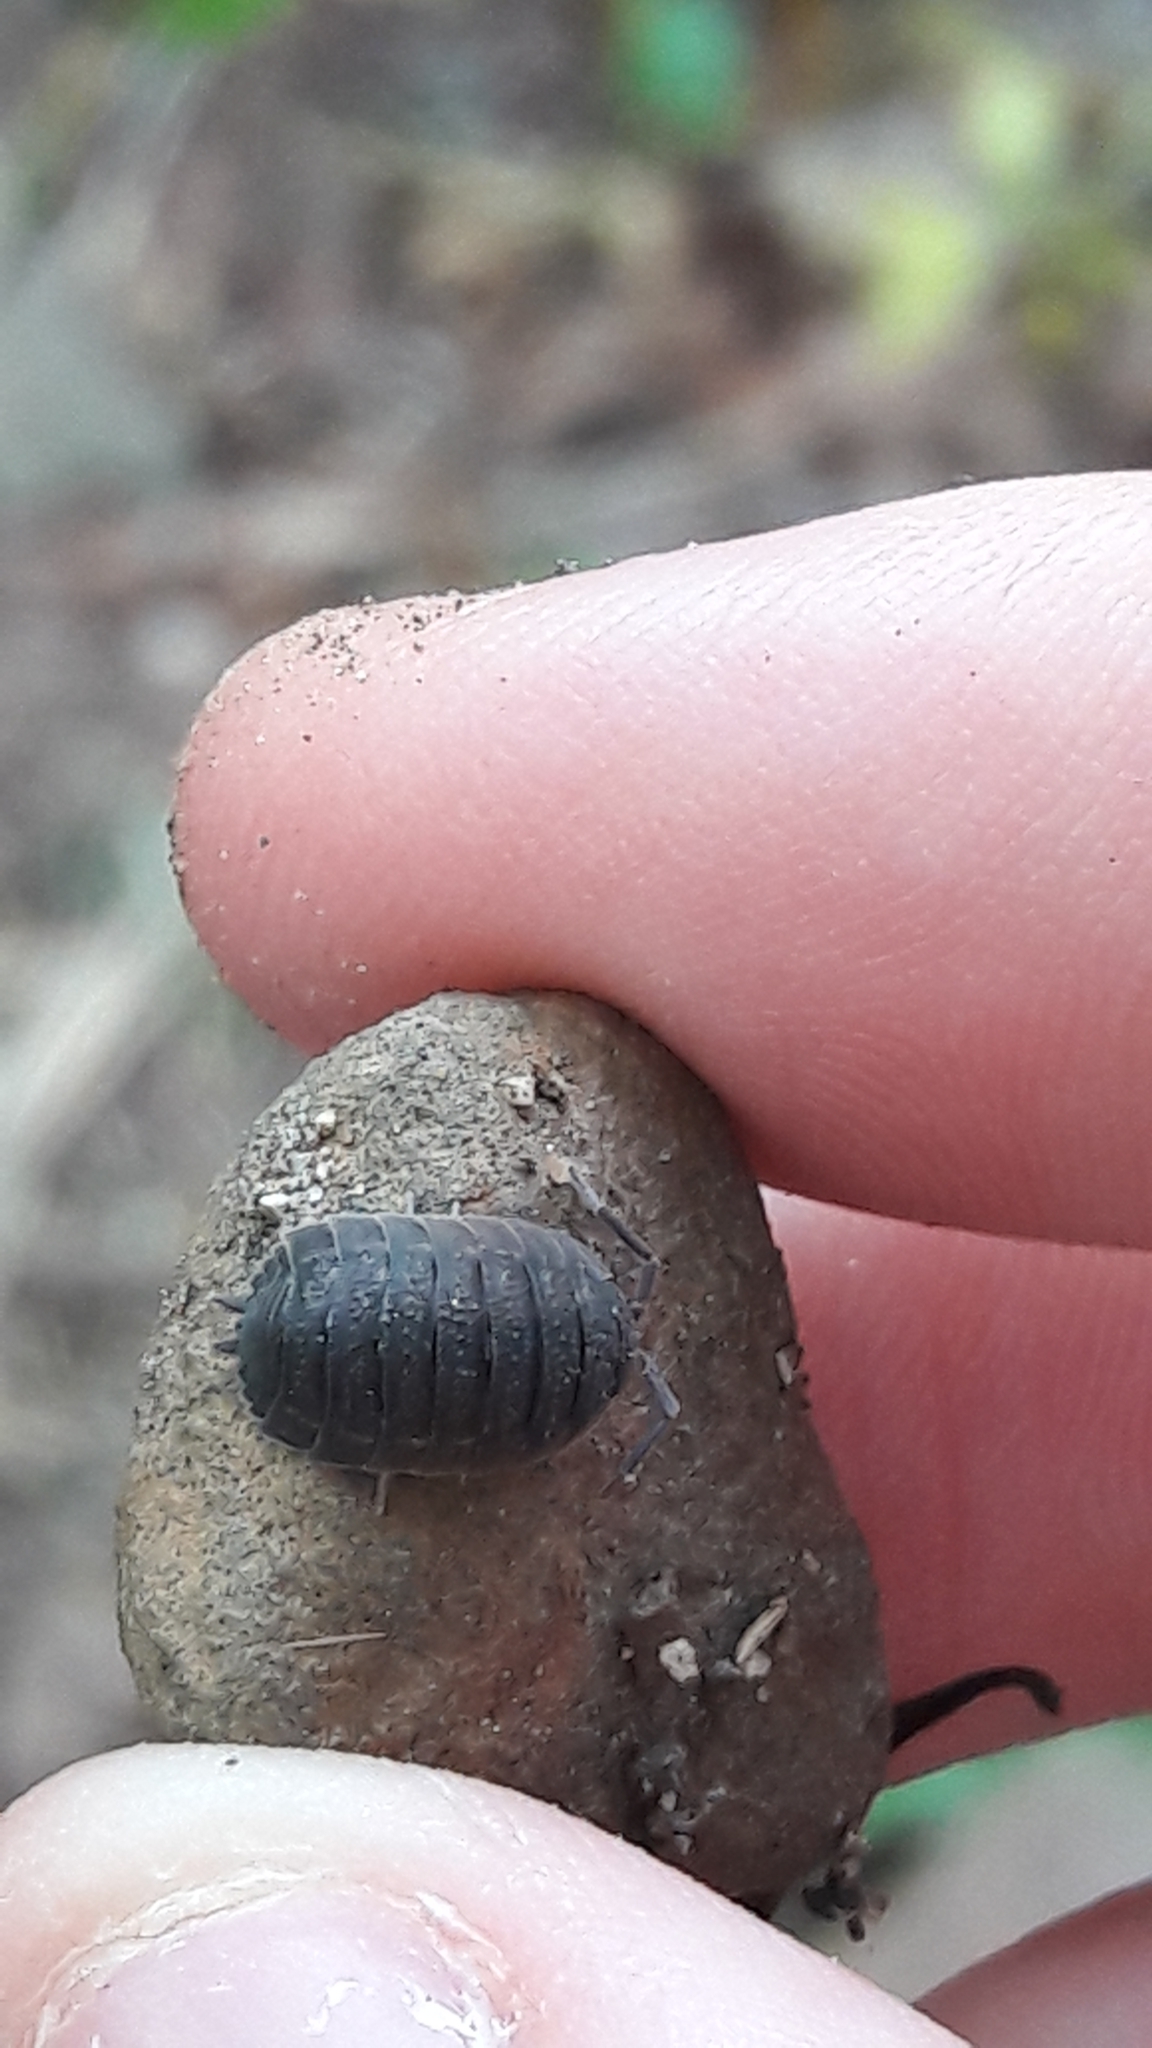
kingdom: Animalia
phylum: Arthropoda
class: Malacostraca
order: Isopoda
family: Porcellionidae
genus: Porcellio
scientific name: Porcellio scaber
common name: Common rough woodlouse
